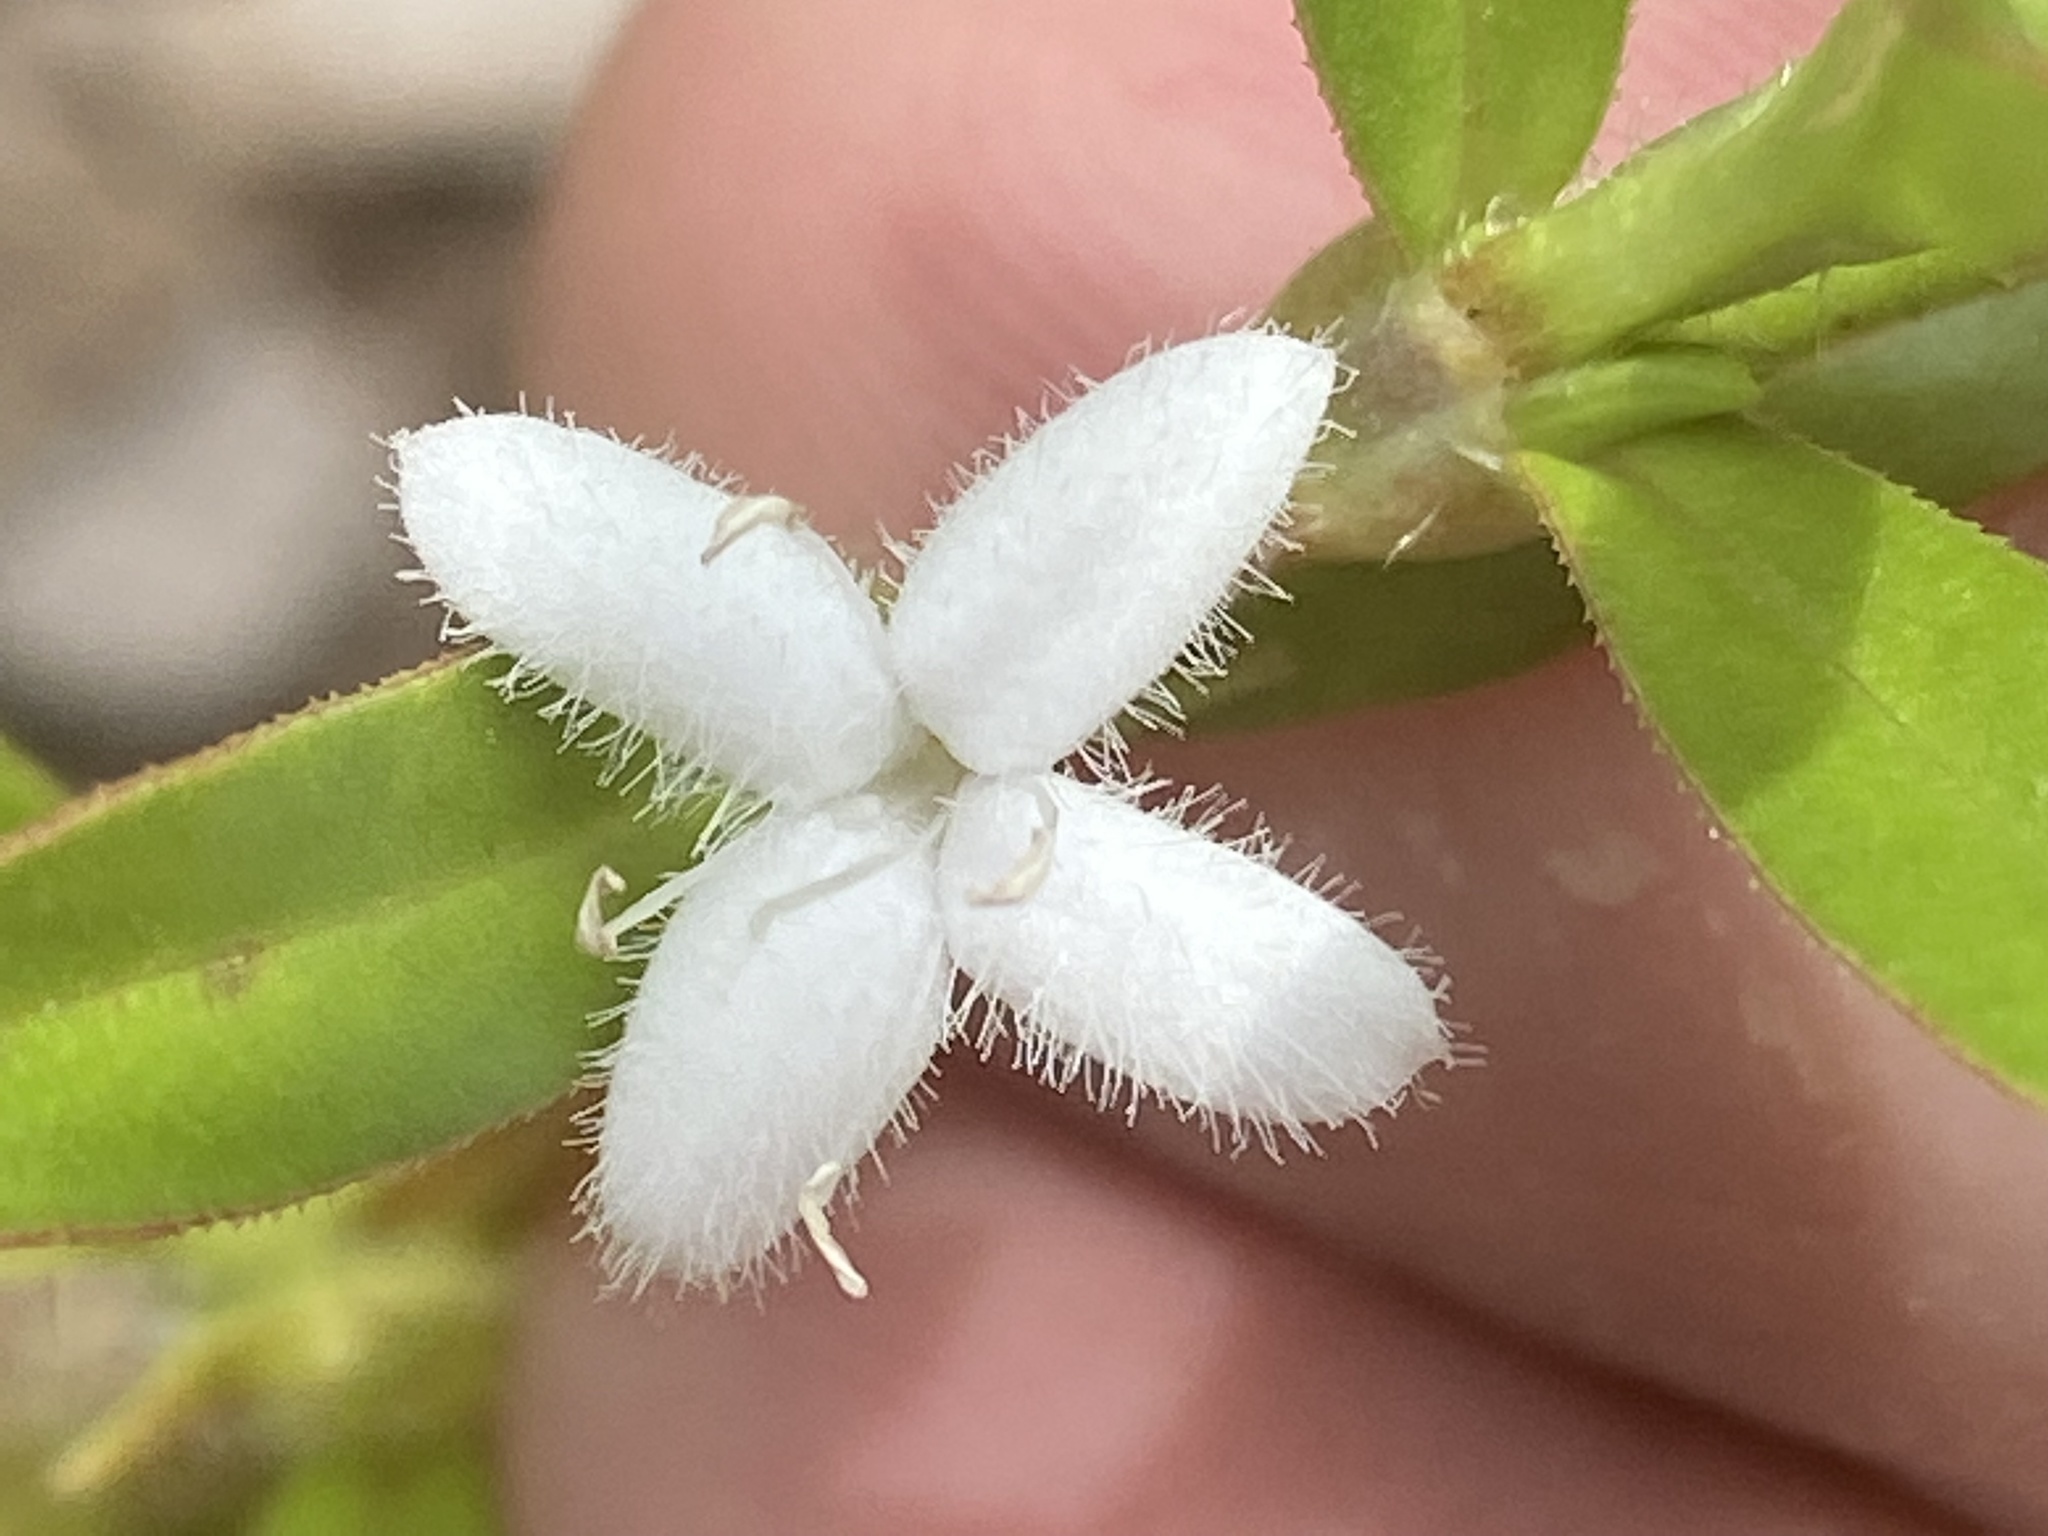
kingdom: Plantae
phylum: Tracheophyta
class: Magnoliopsida
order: Gentianales
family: Rubiaceae
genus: Diodia
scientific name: Diodia virginiana
